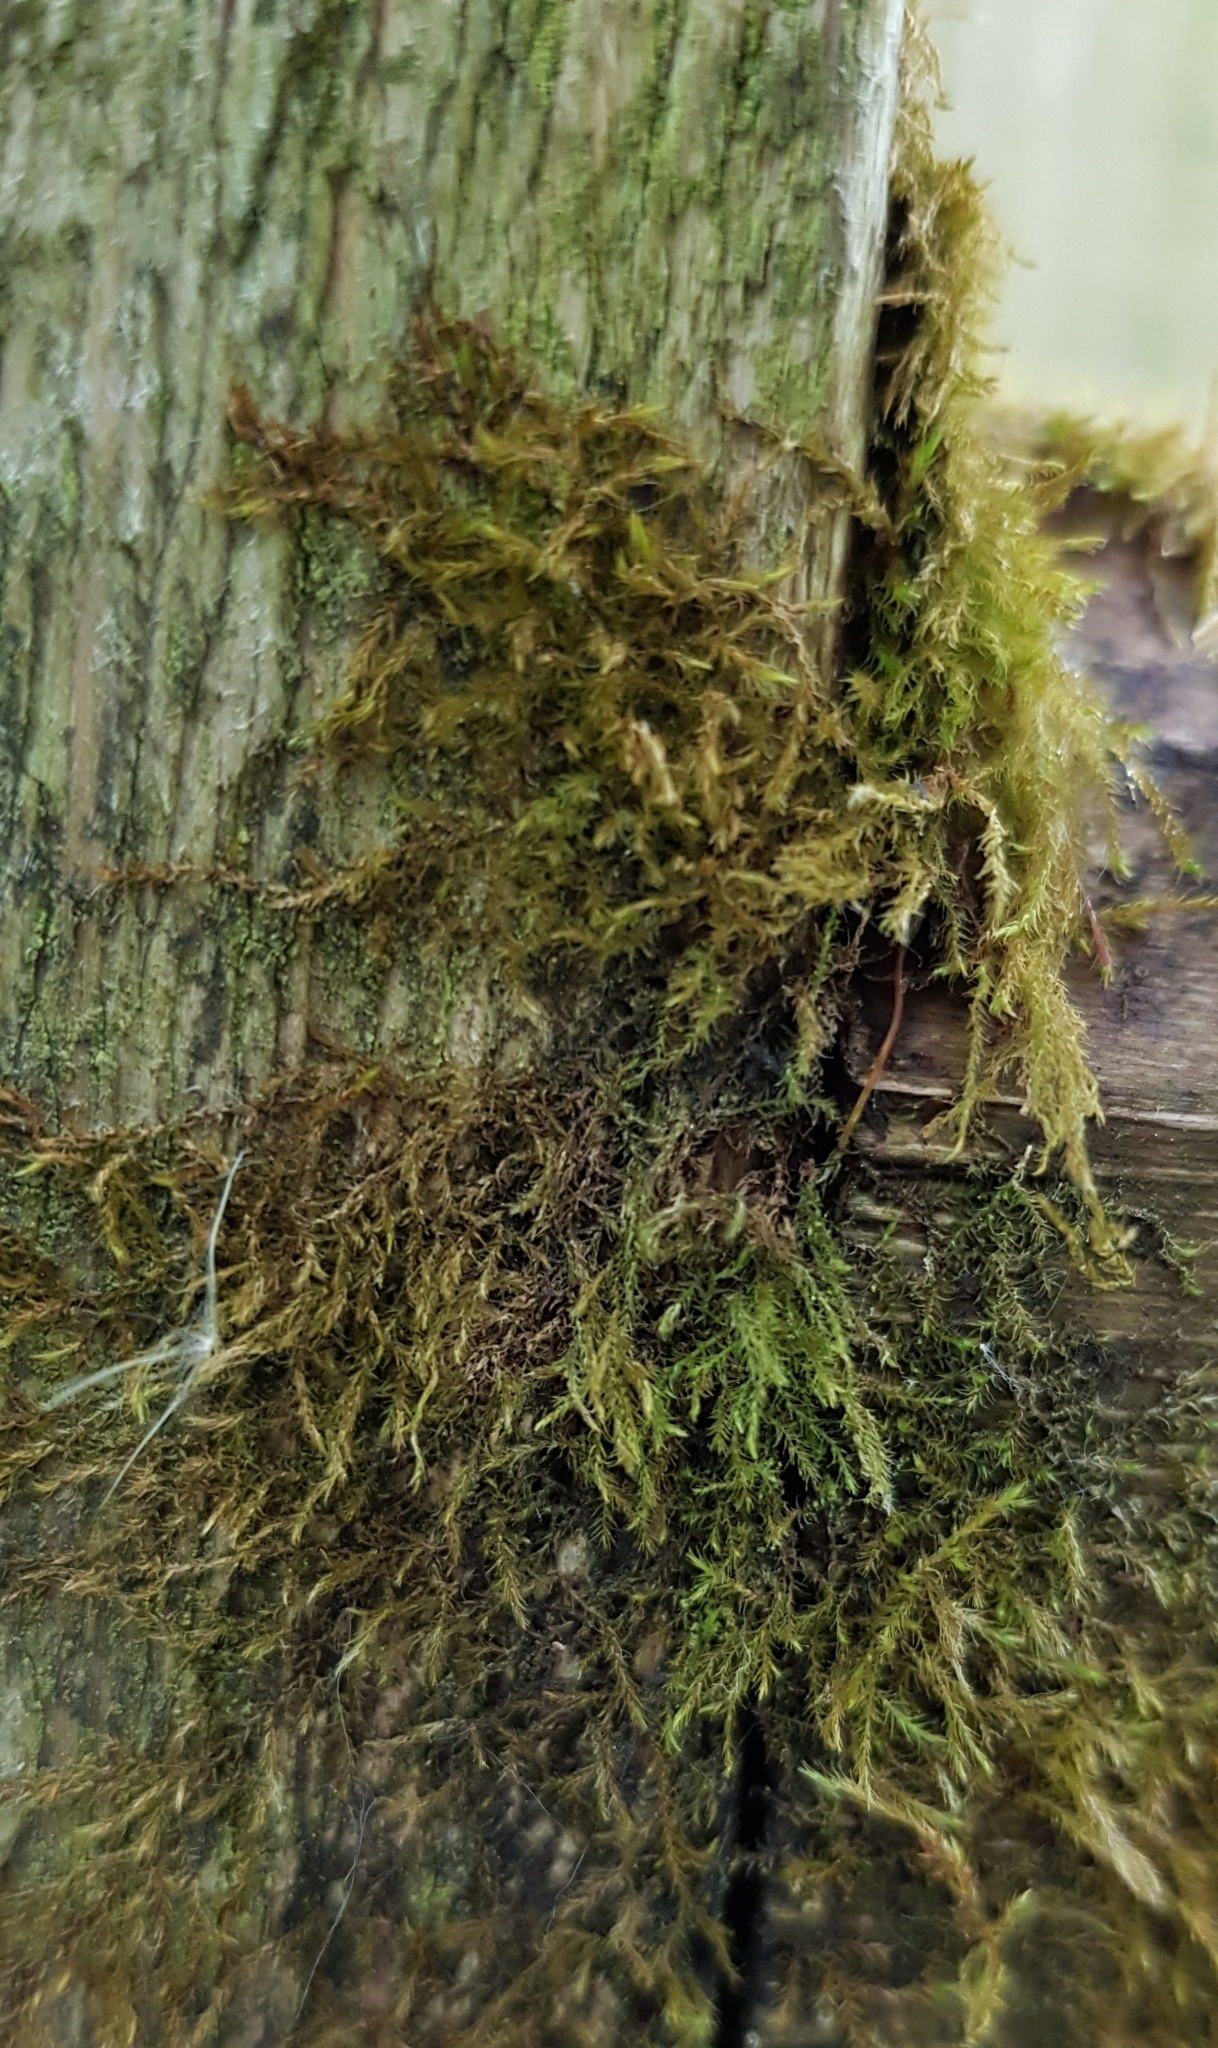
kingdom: Plantae
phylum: Bryophyta
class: Bryopsida
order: Hypnales
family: Amblystegiaceae
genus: Amblystegium
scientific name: Amblystegium serpens
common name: Jurkatzka's feather moss
